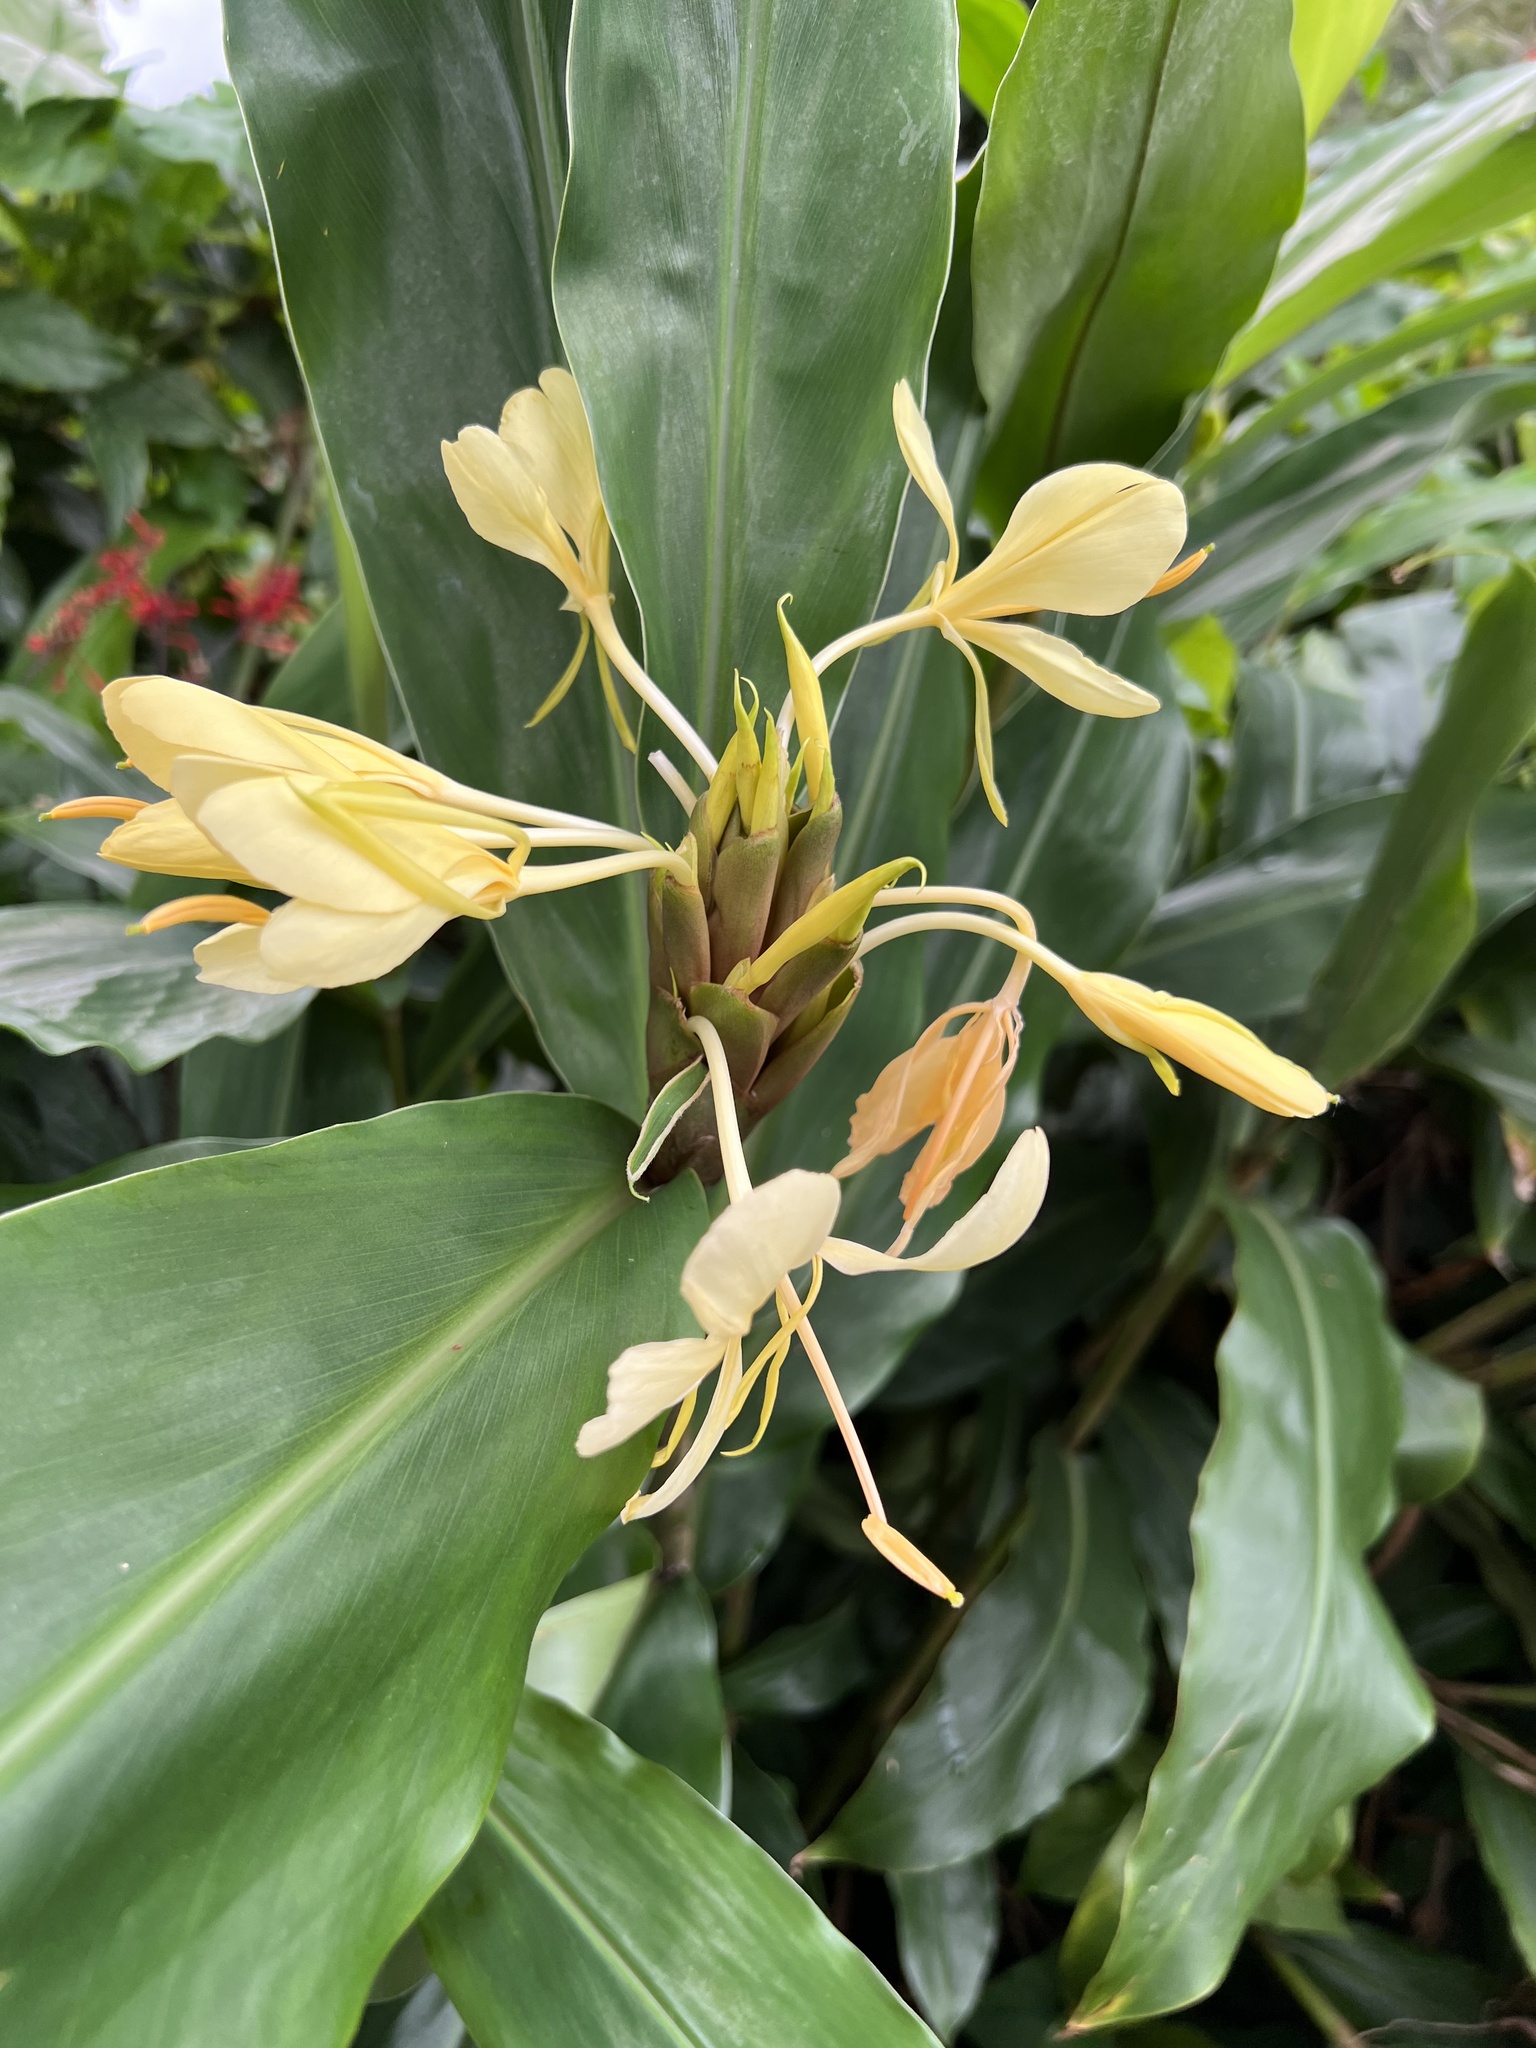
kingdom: Plantae
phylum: Tracheophyta
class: Liliopsida
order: Zingiberales
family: Zingiberaceae
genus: Hedychium
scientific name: Hedychium flavescens
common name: Yellow ginger
